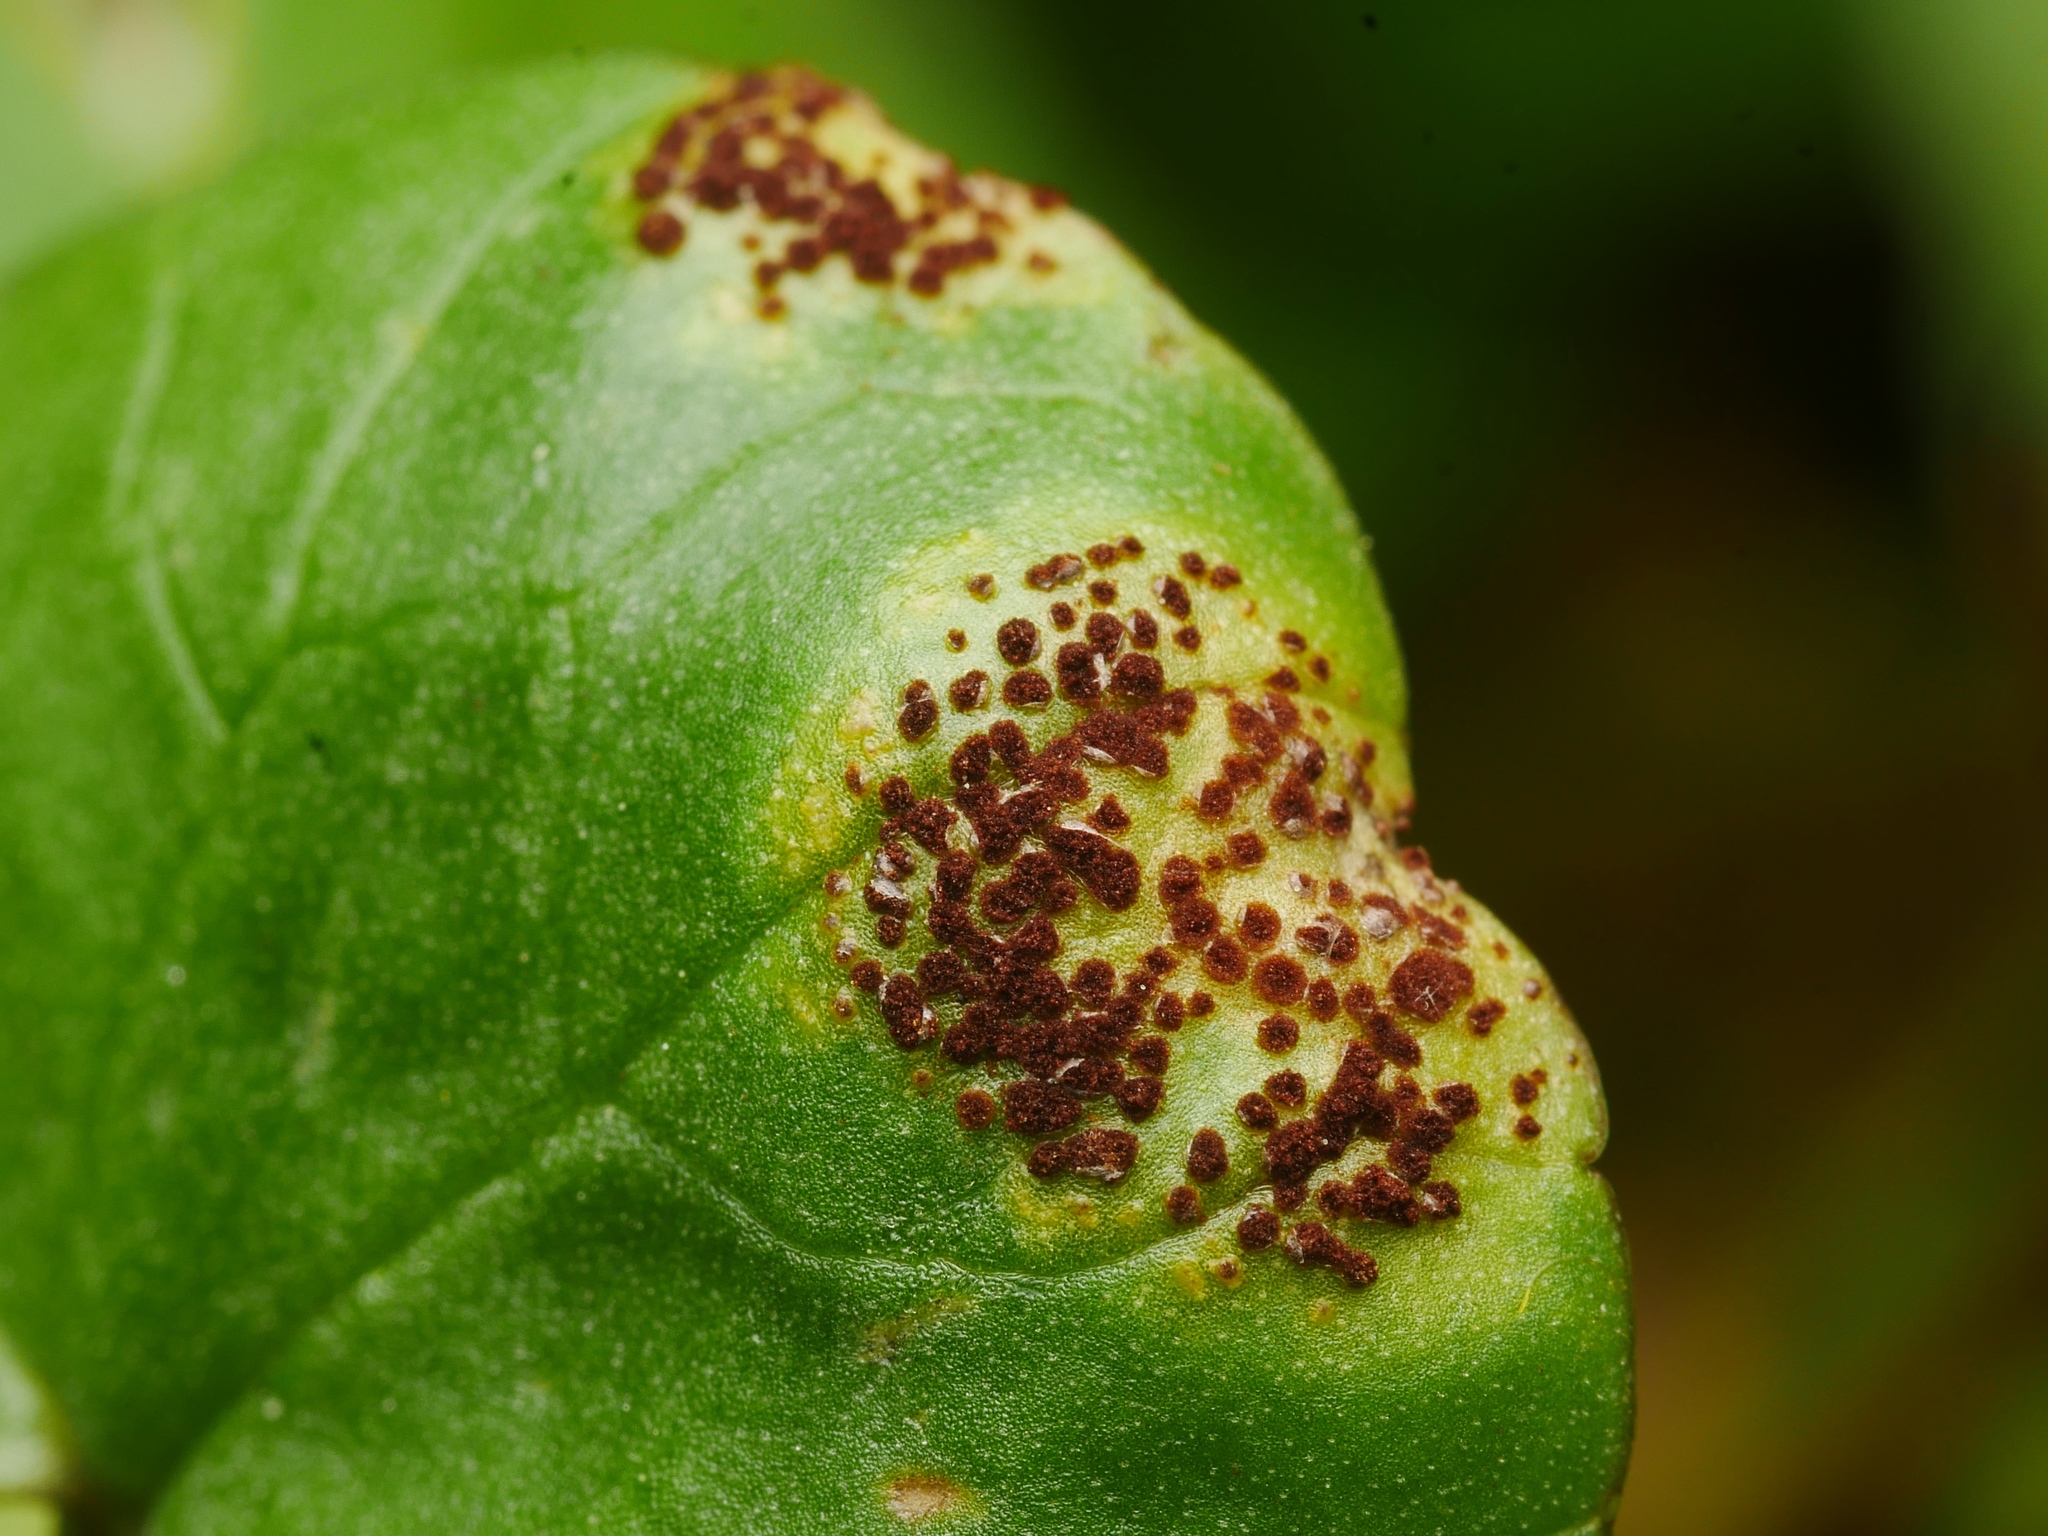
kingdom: Fungi
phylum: Basidiomycota
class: Pucciniomycetes
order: Pucciniales
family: Pucciniaceae
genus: Uromyces
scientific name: Uromyces ficariae
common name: Bitter chocolate rust
